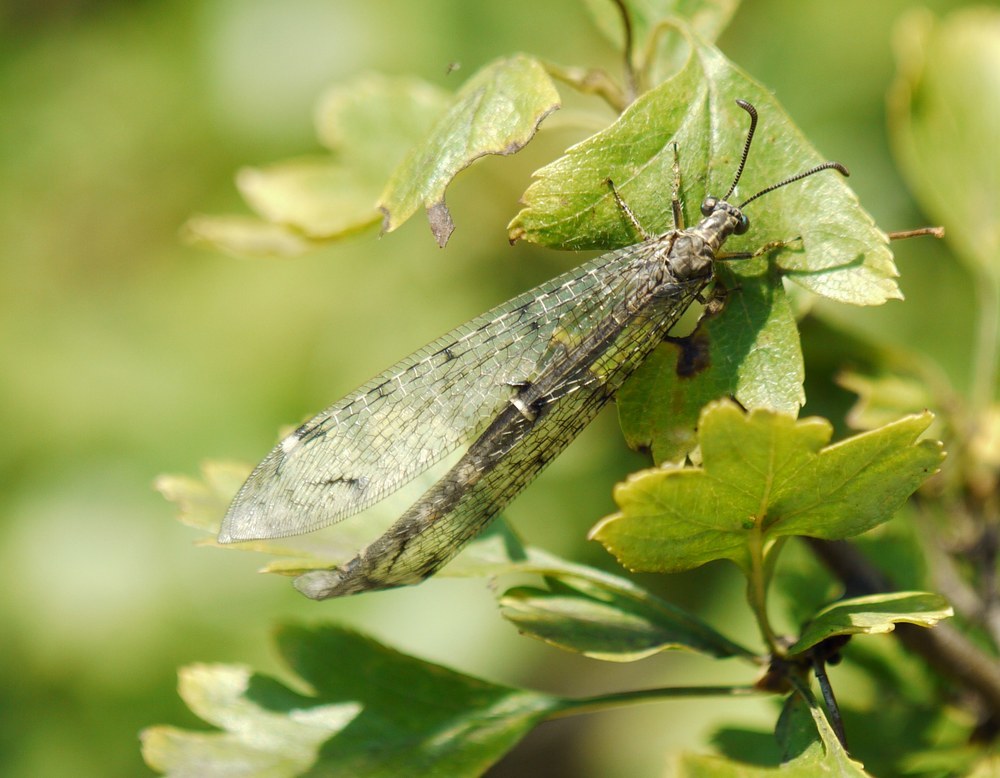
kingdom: Animalia
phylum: Arthropoda
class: Insecta
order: Neuroptera
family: Myrmeleontidae
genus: Distoleon
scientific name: Distoleon tetragrammicus
